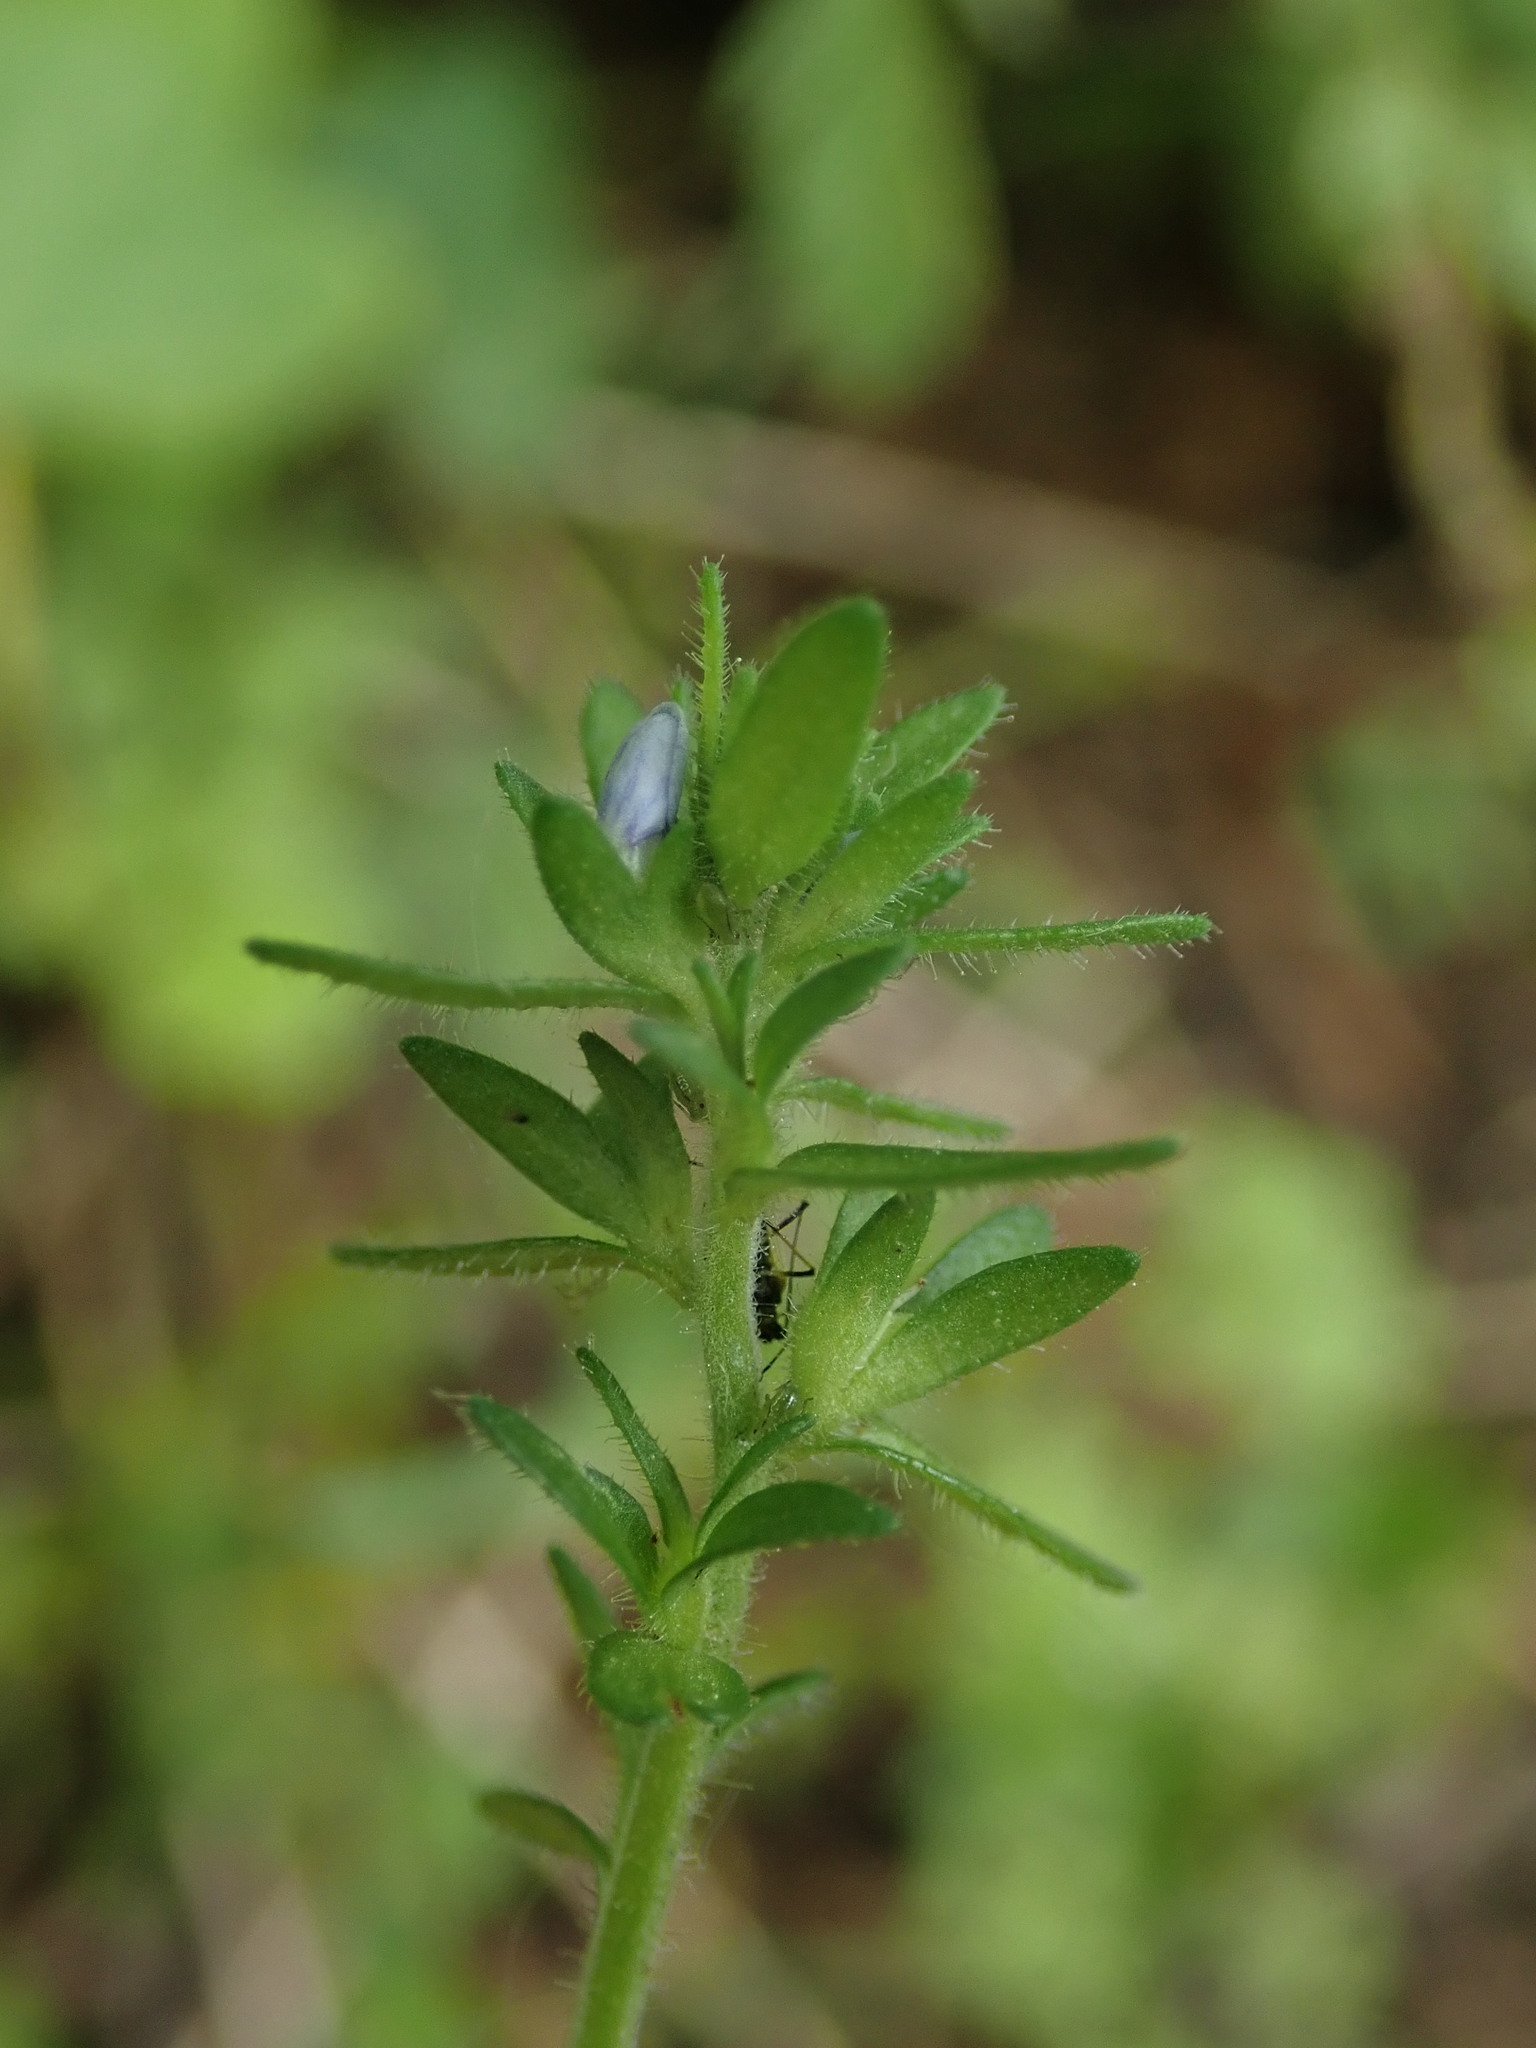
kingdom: Plantae
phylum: Tracheophyta
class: Magnoliopsida
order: Lamiales
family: Plantaginaceae
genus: Veronica
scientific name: Veronica arvensis
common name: Corn speedwell
